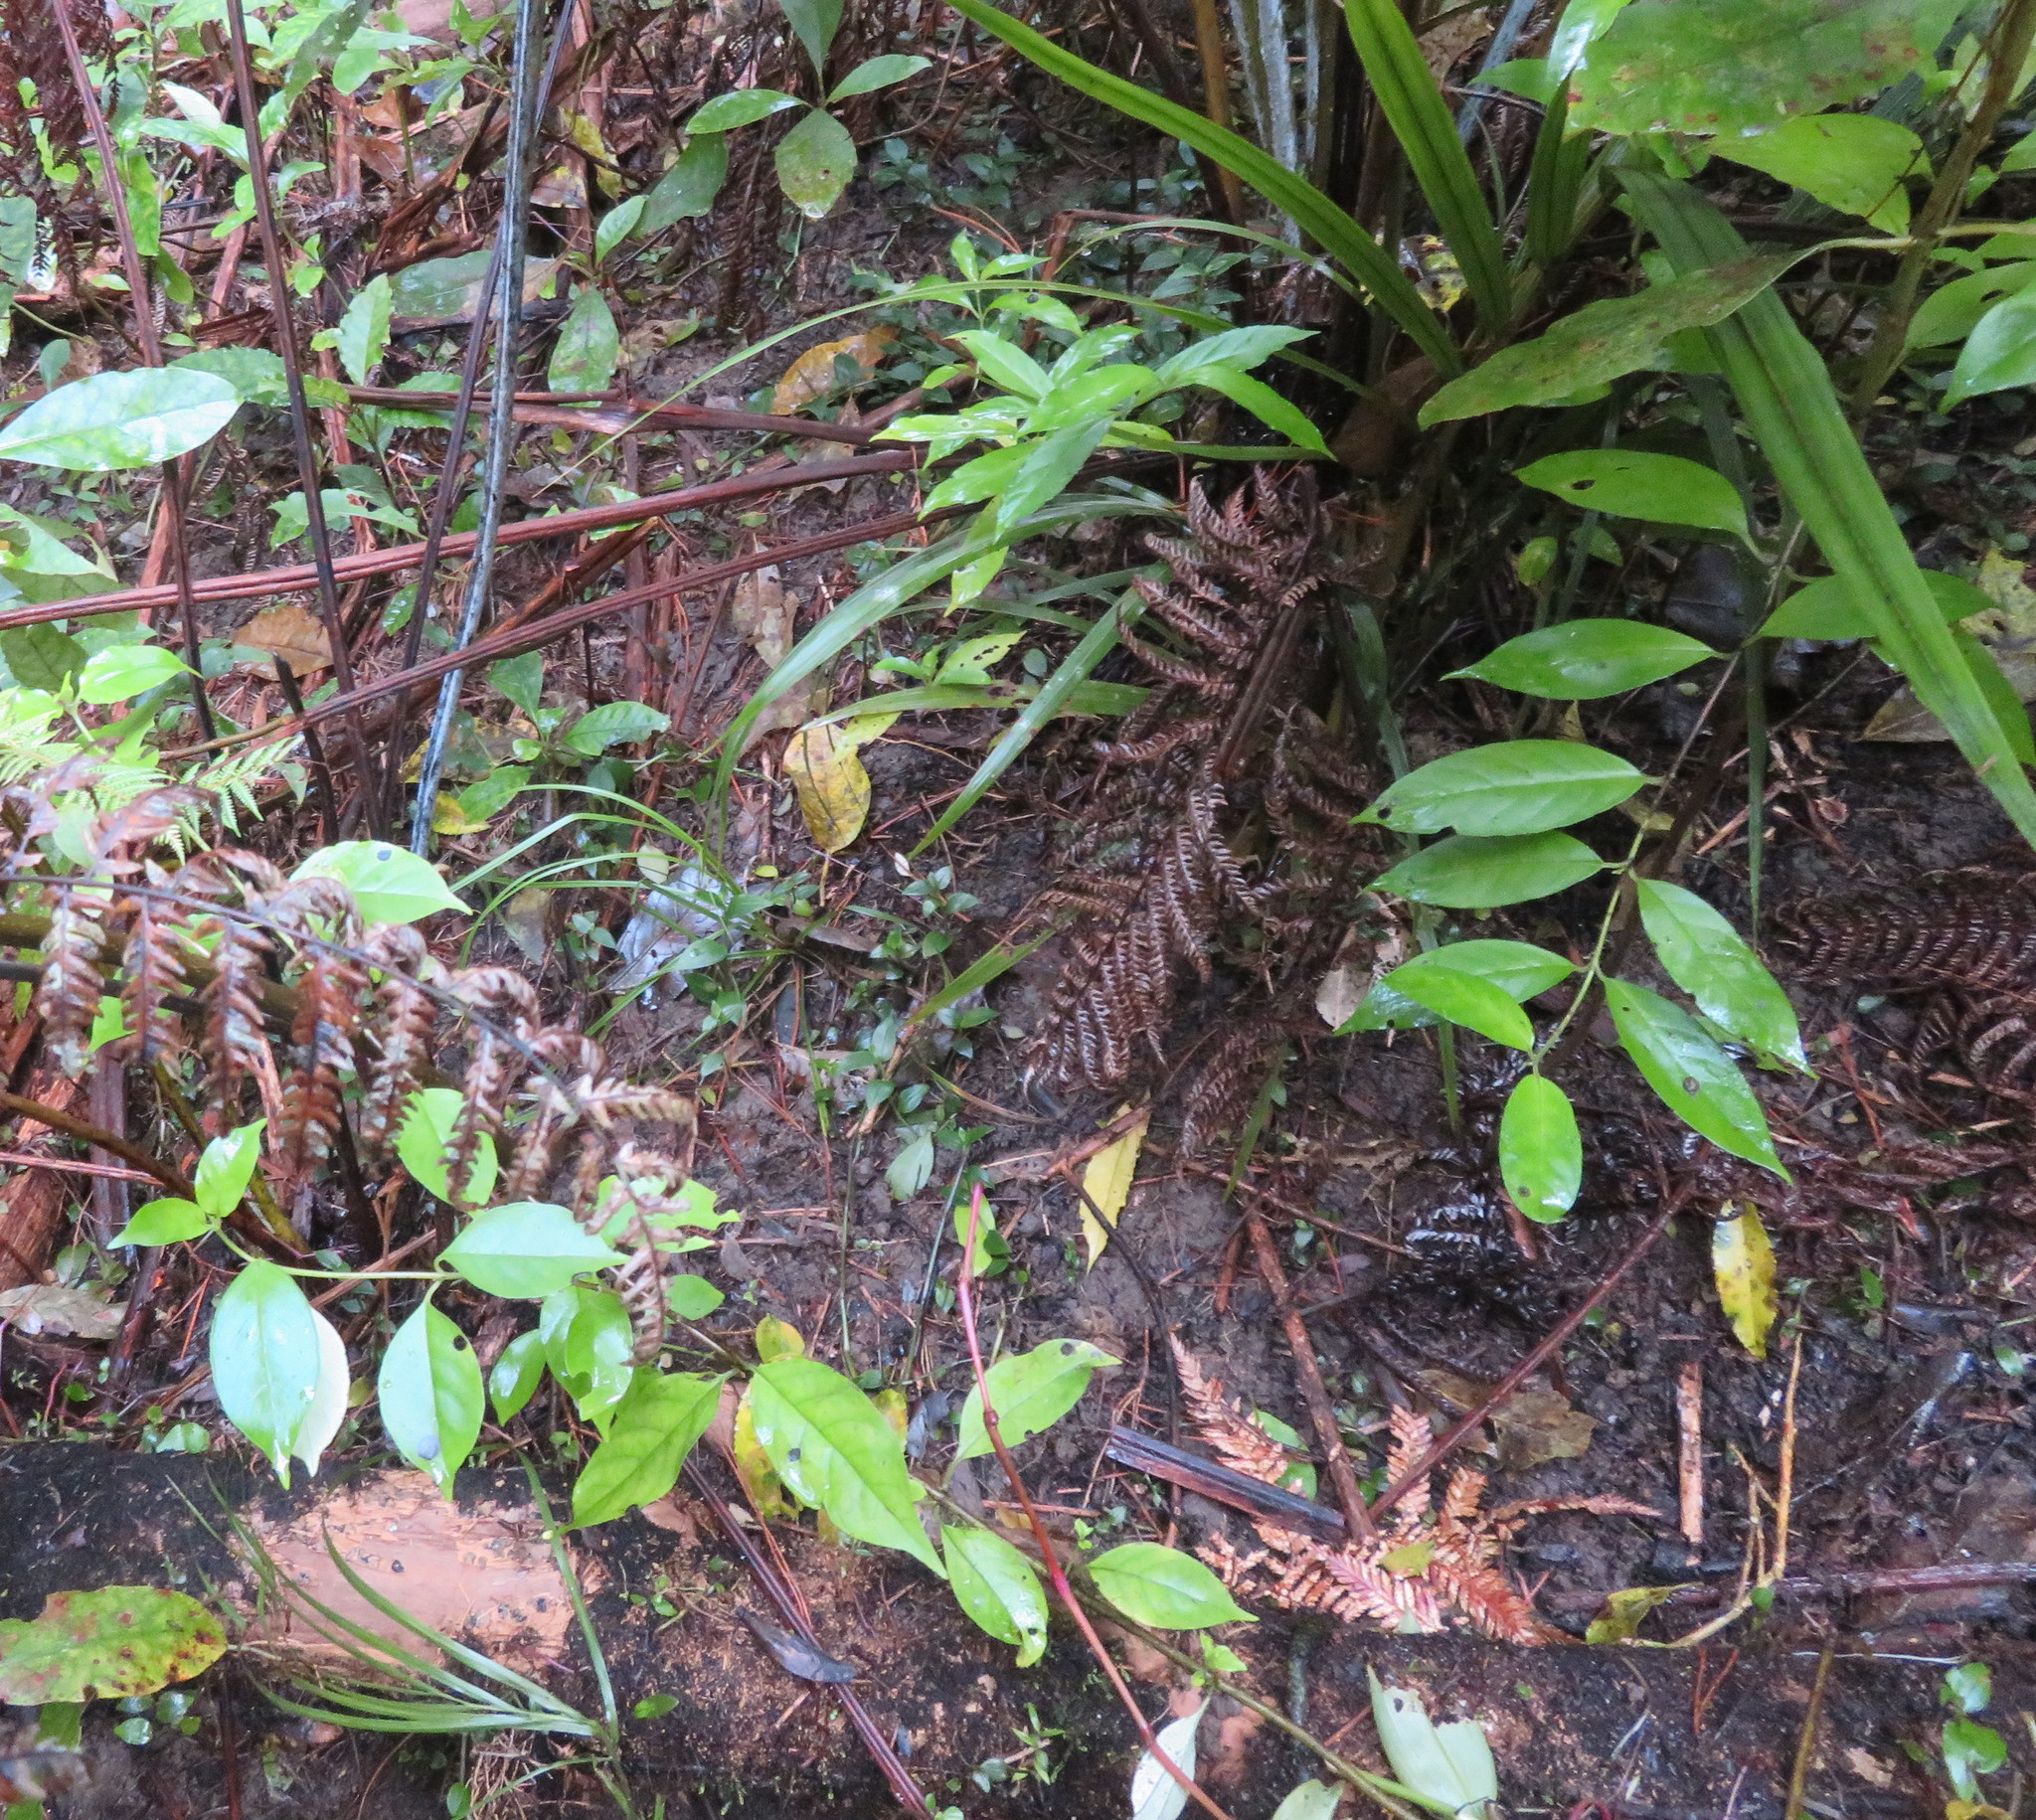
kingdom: Plantae
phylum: Tracheophyta
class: Magnoliopsida
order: Gentianales
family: Loganiaceae
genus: Geniostoma
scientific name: Geniostoma ligustrifolium
